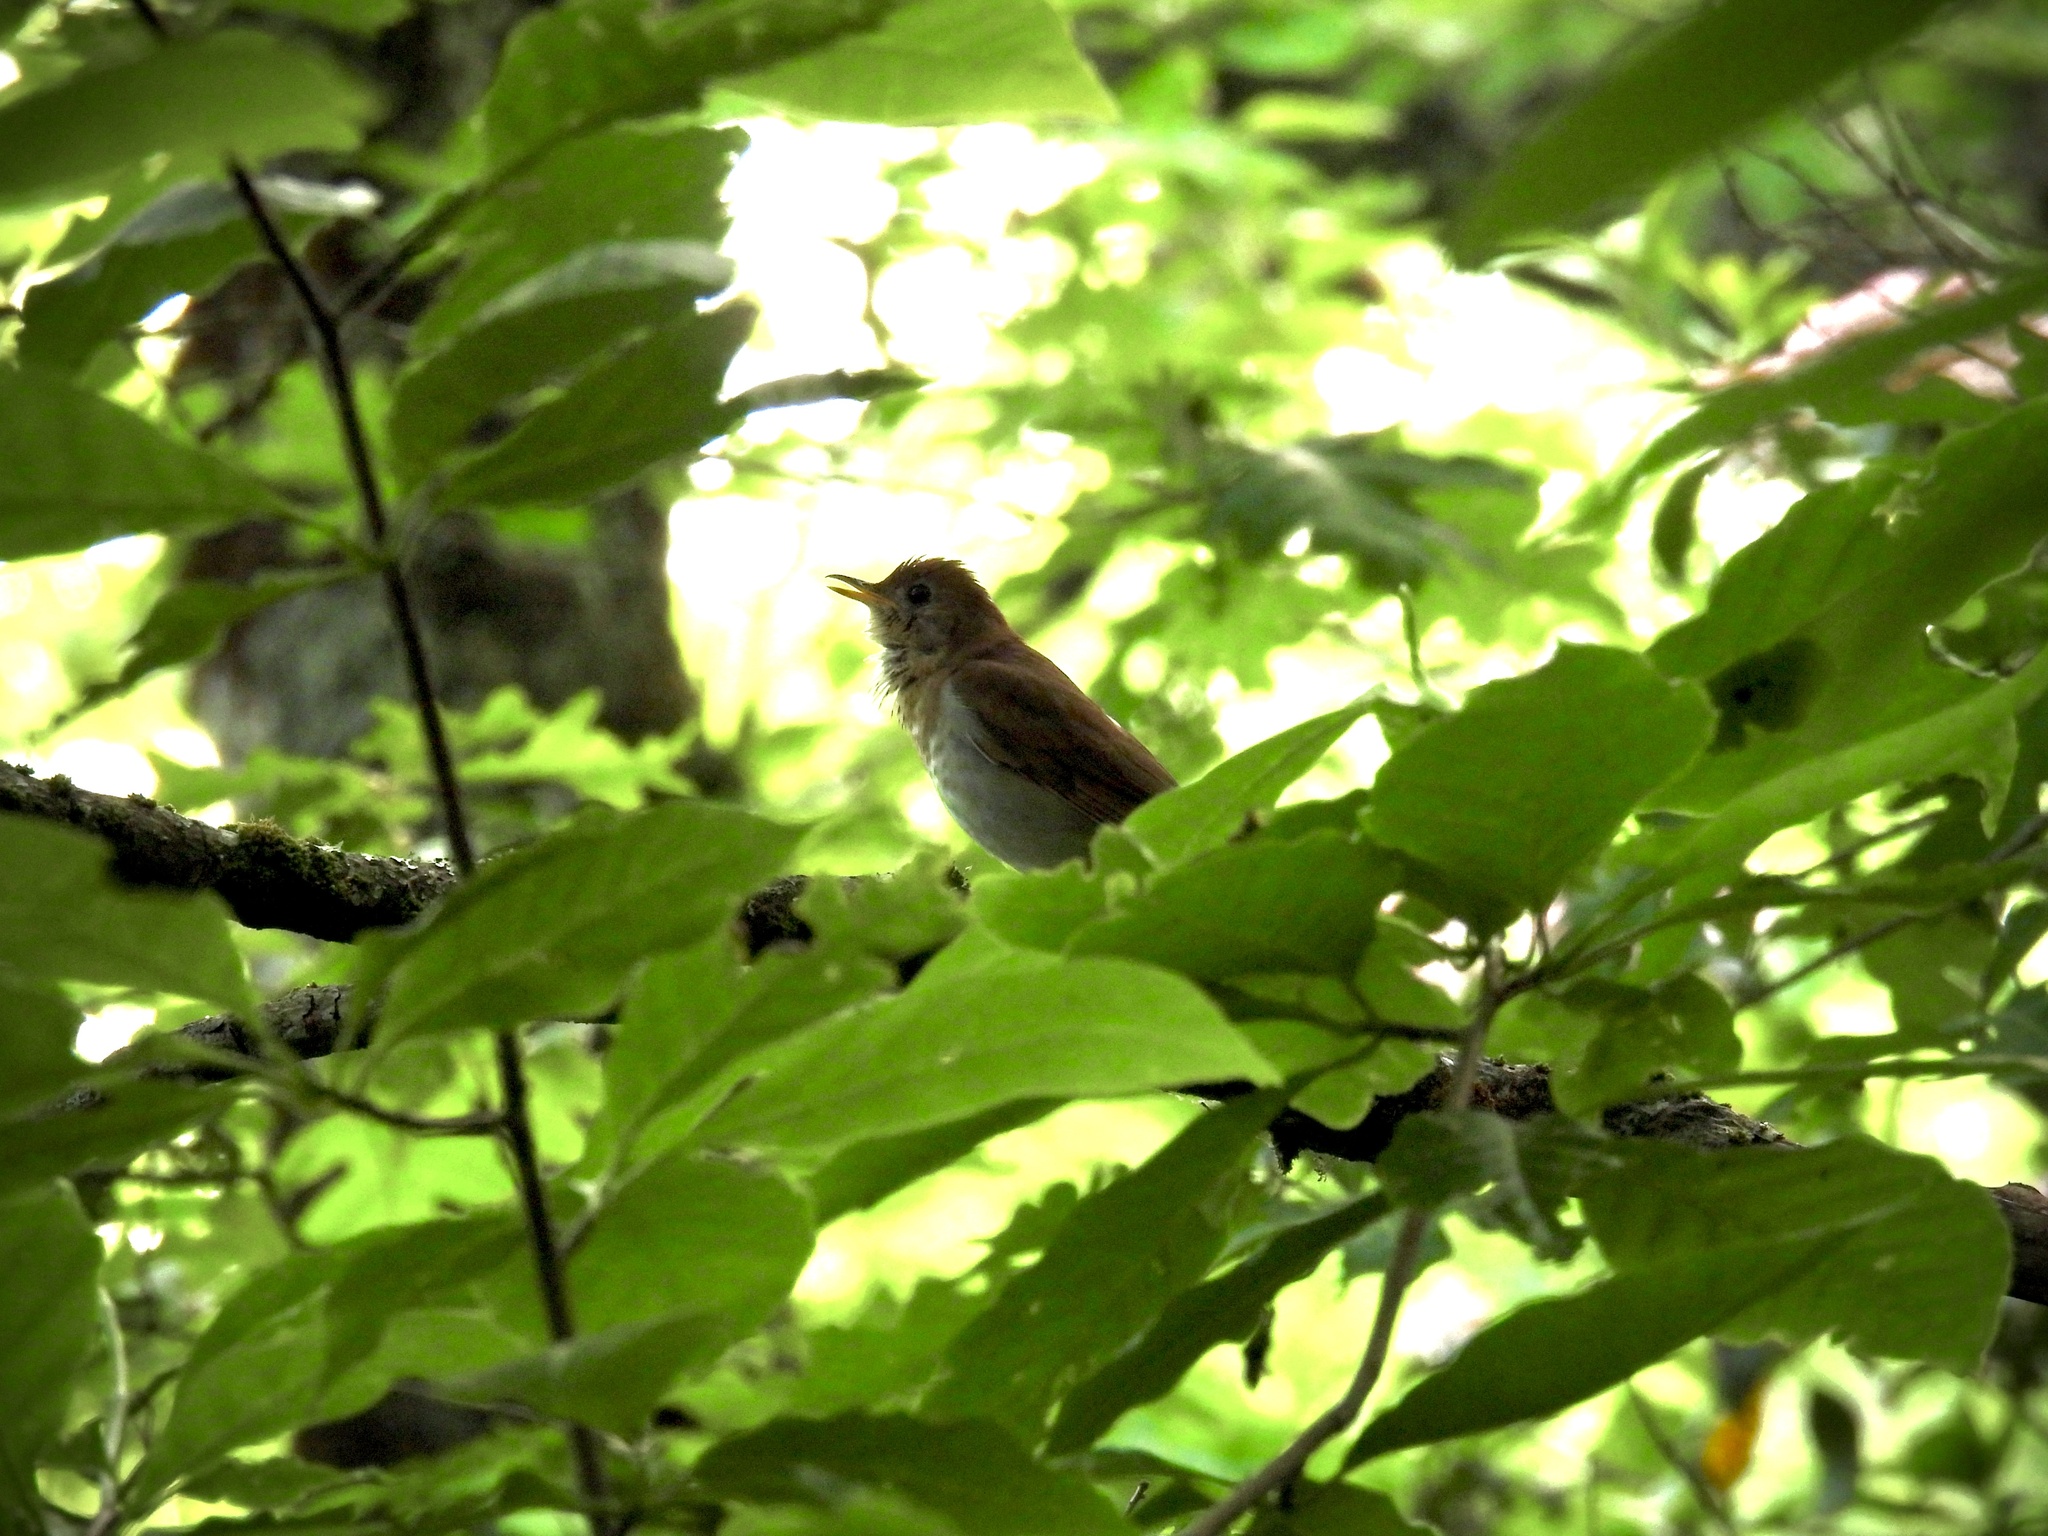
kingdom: Animalia
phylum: Chordata
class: Aves
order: Passeriformes
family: Turdidae
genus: Catharus
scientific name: Catharus fuscescens
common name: Veery
